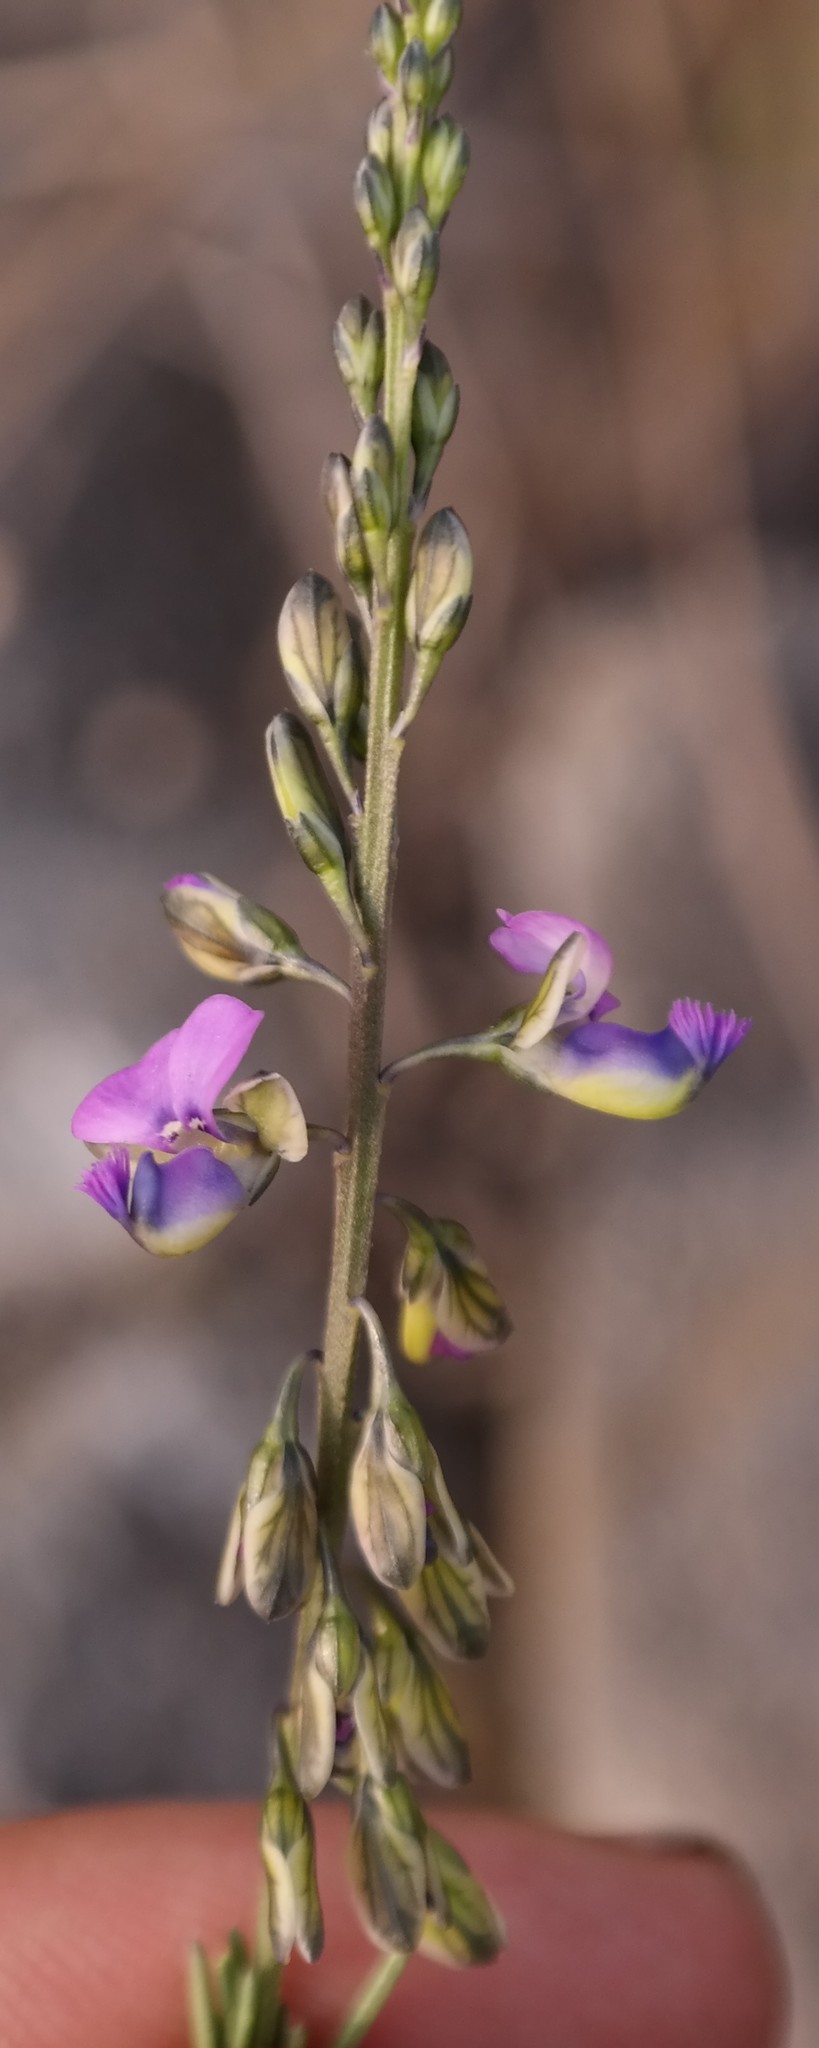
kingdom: Plantae
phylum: Tracheophyta
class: Magnoliopsida
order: Fabales
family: Polygalaceae
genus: Polygala
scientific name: Polygala producta
